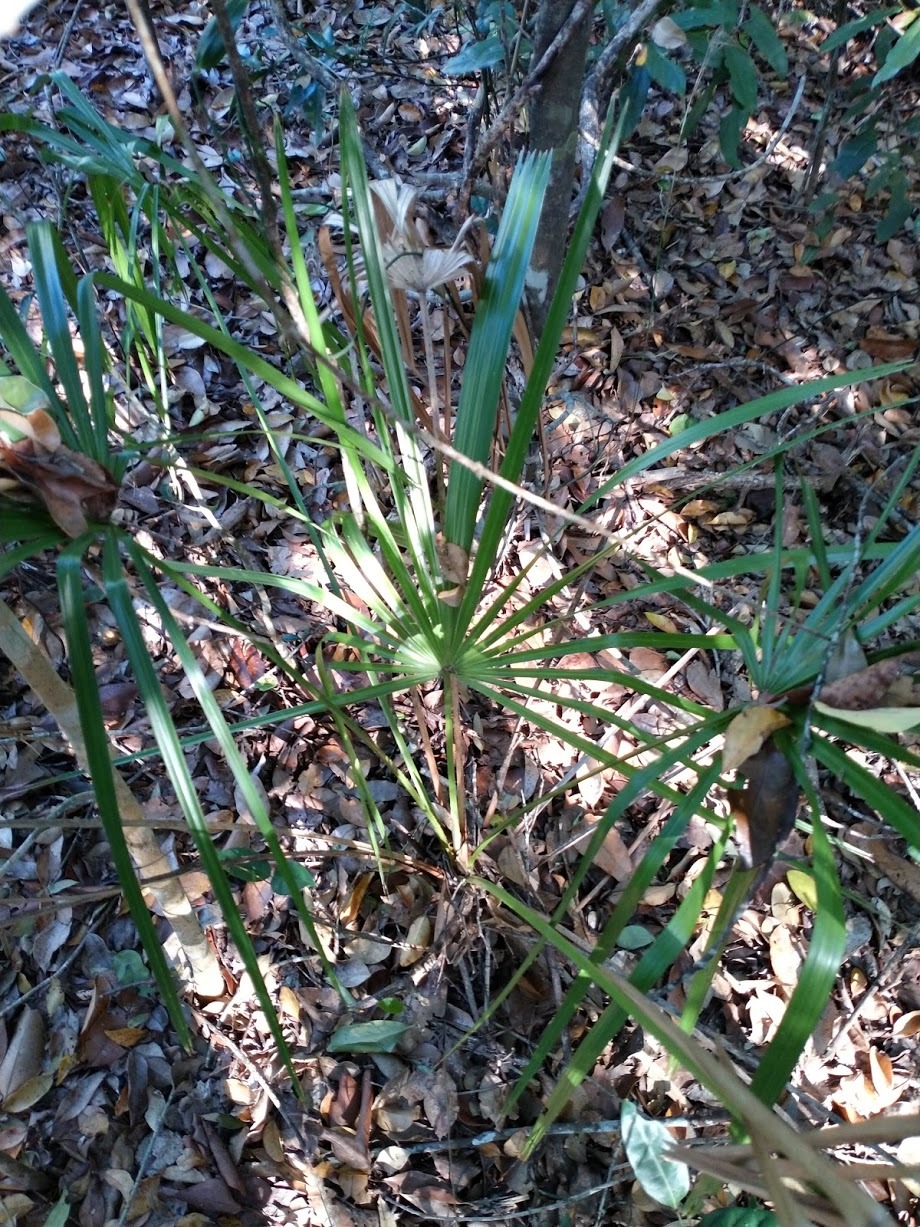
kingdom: Plantae
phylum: Tracheophyta
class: Liliopsida
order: Arecales
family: Arecaceae
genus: Livistona
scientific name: Livistona decora
